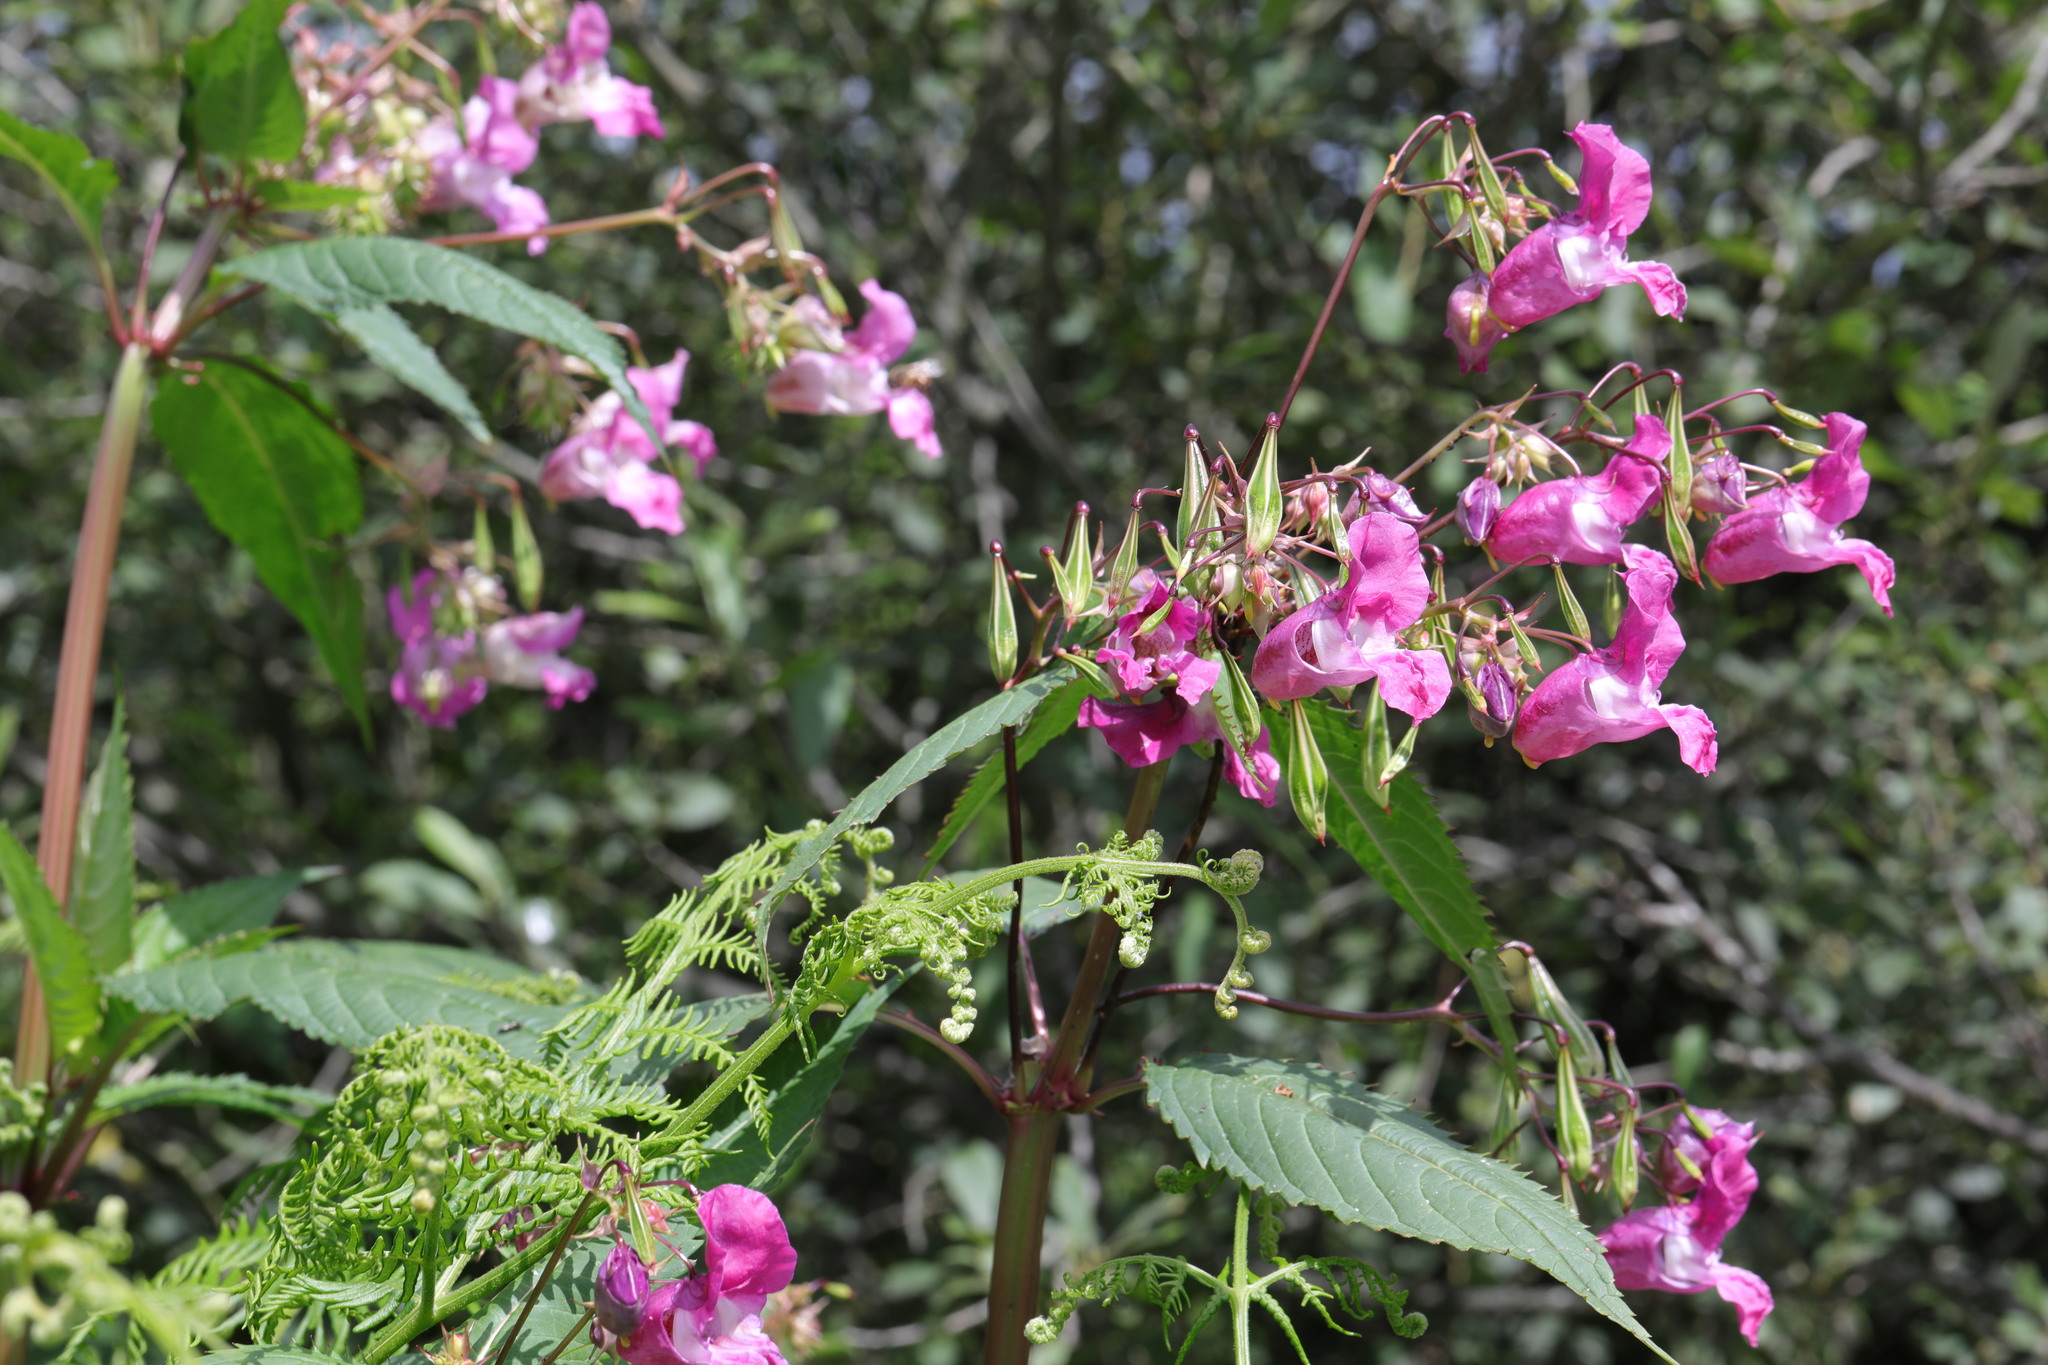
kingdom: Plantae
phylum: Tracheophyta
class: Magnoliopsida
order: Ericales
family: Balsaminaceae
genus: Impatiens
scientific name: Impatiens glandulifera
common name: Himalayan balsam
